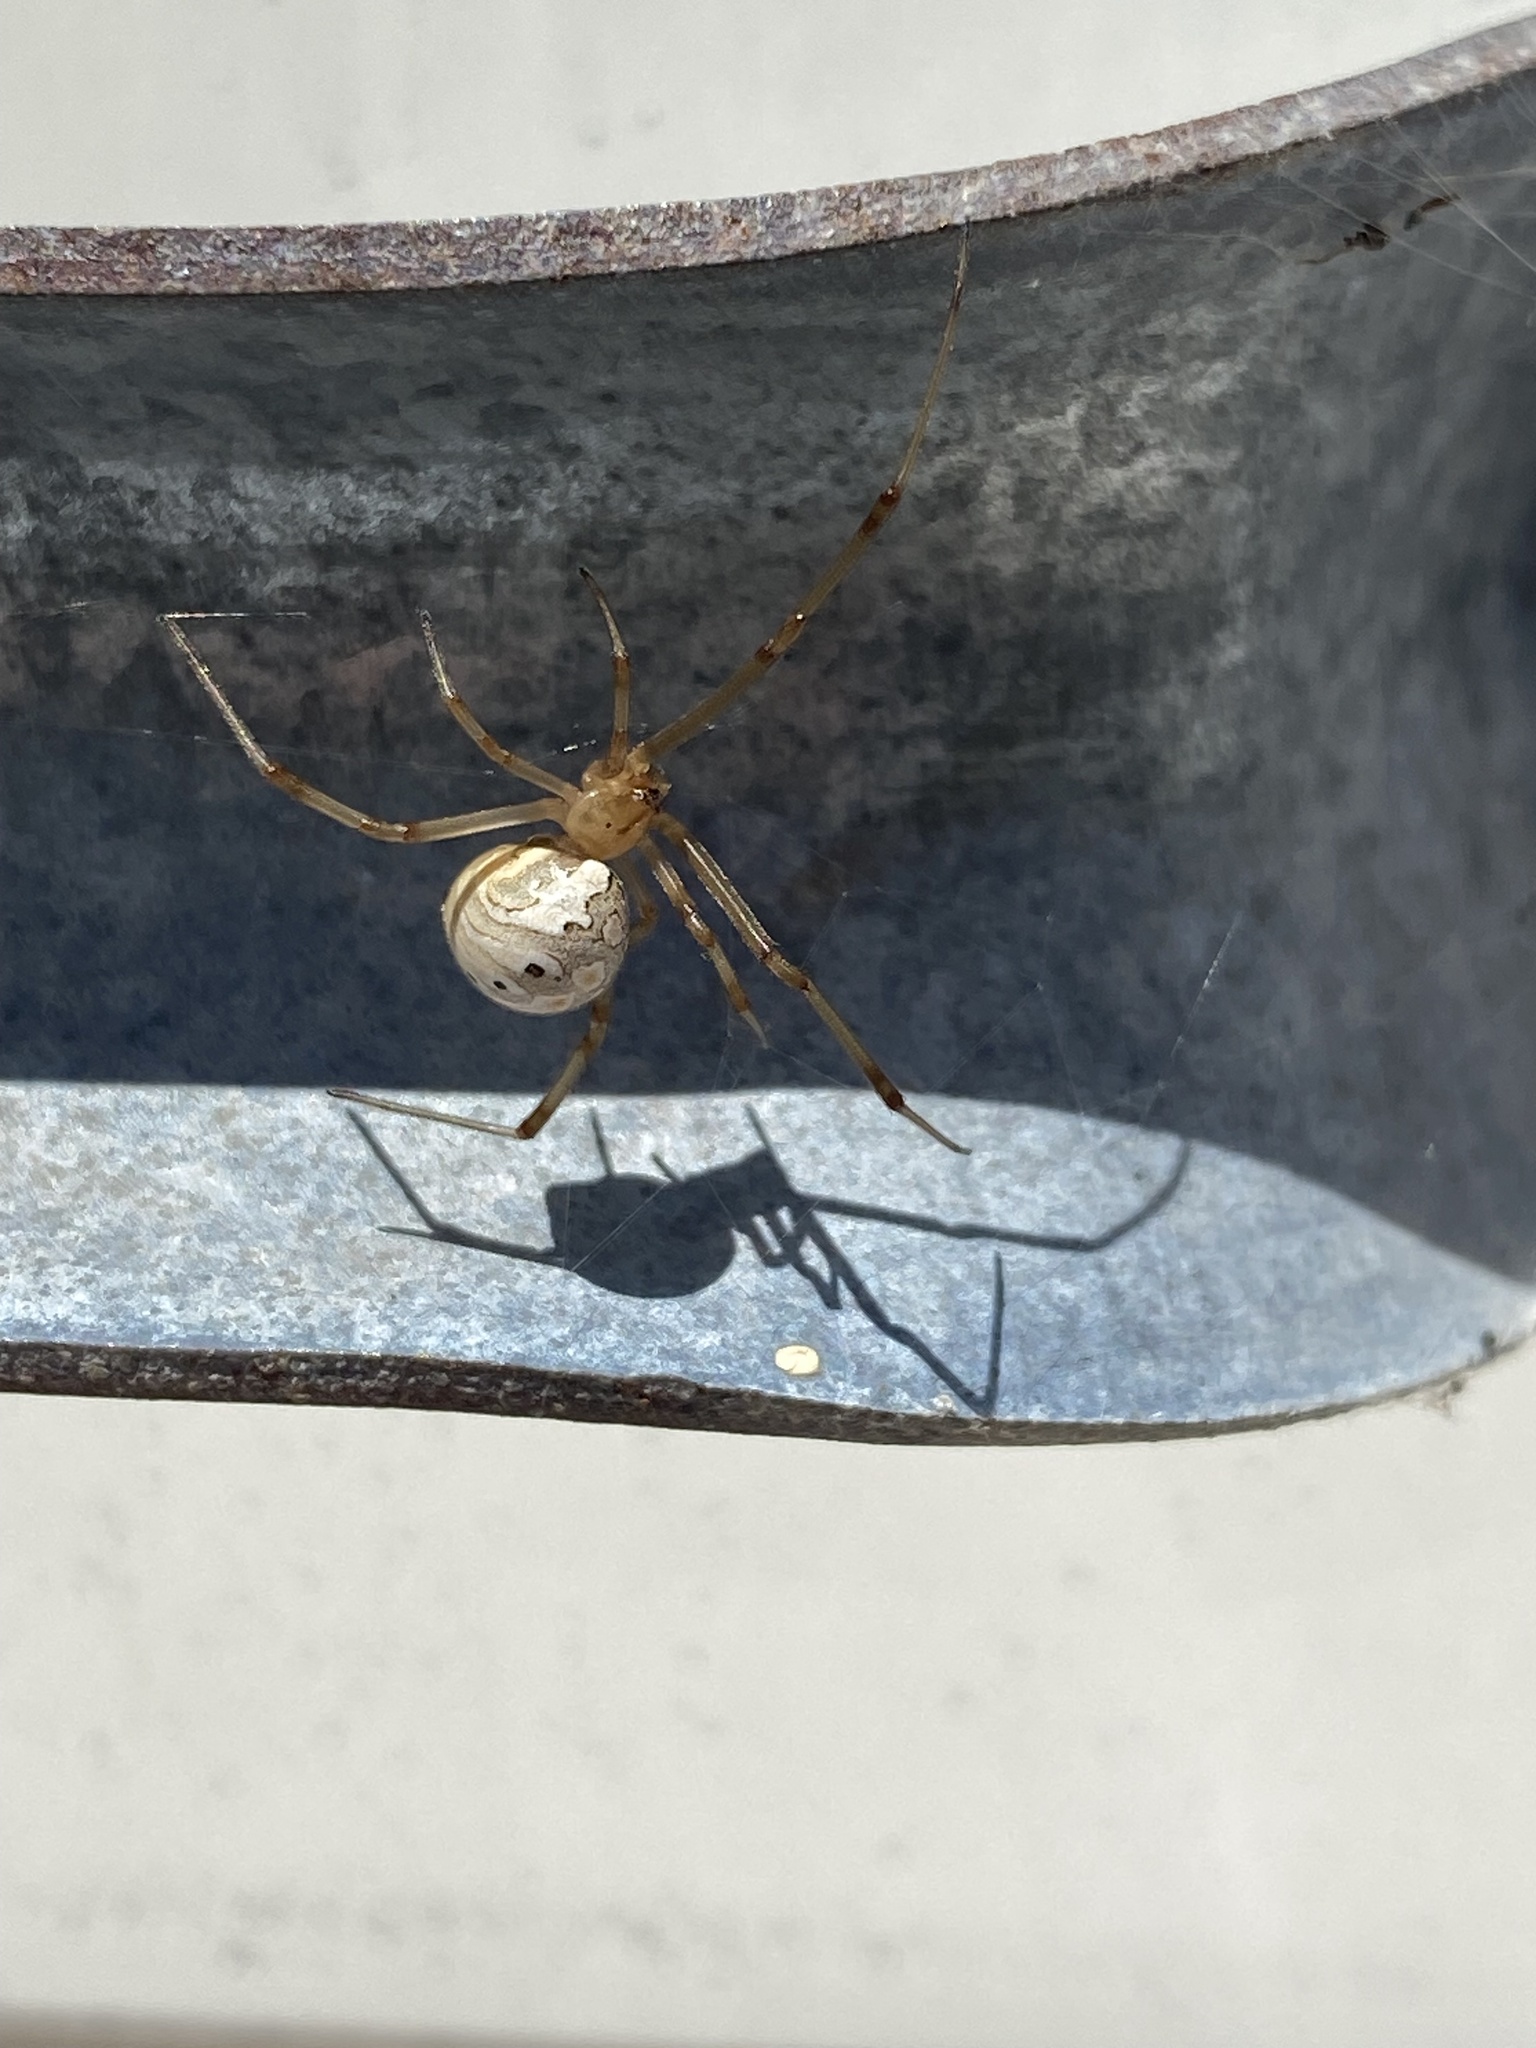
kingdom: Animalia
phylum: Arthropoda
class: Arachnida
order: Araneae
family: Theridiidae
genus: Latrodectus
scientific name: Latrodectus geometricus
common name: Brown widow spider
